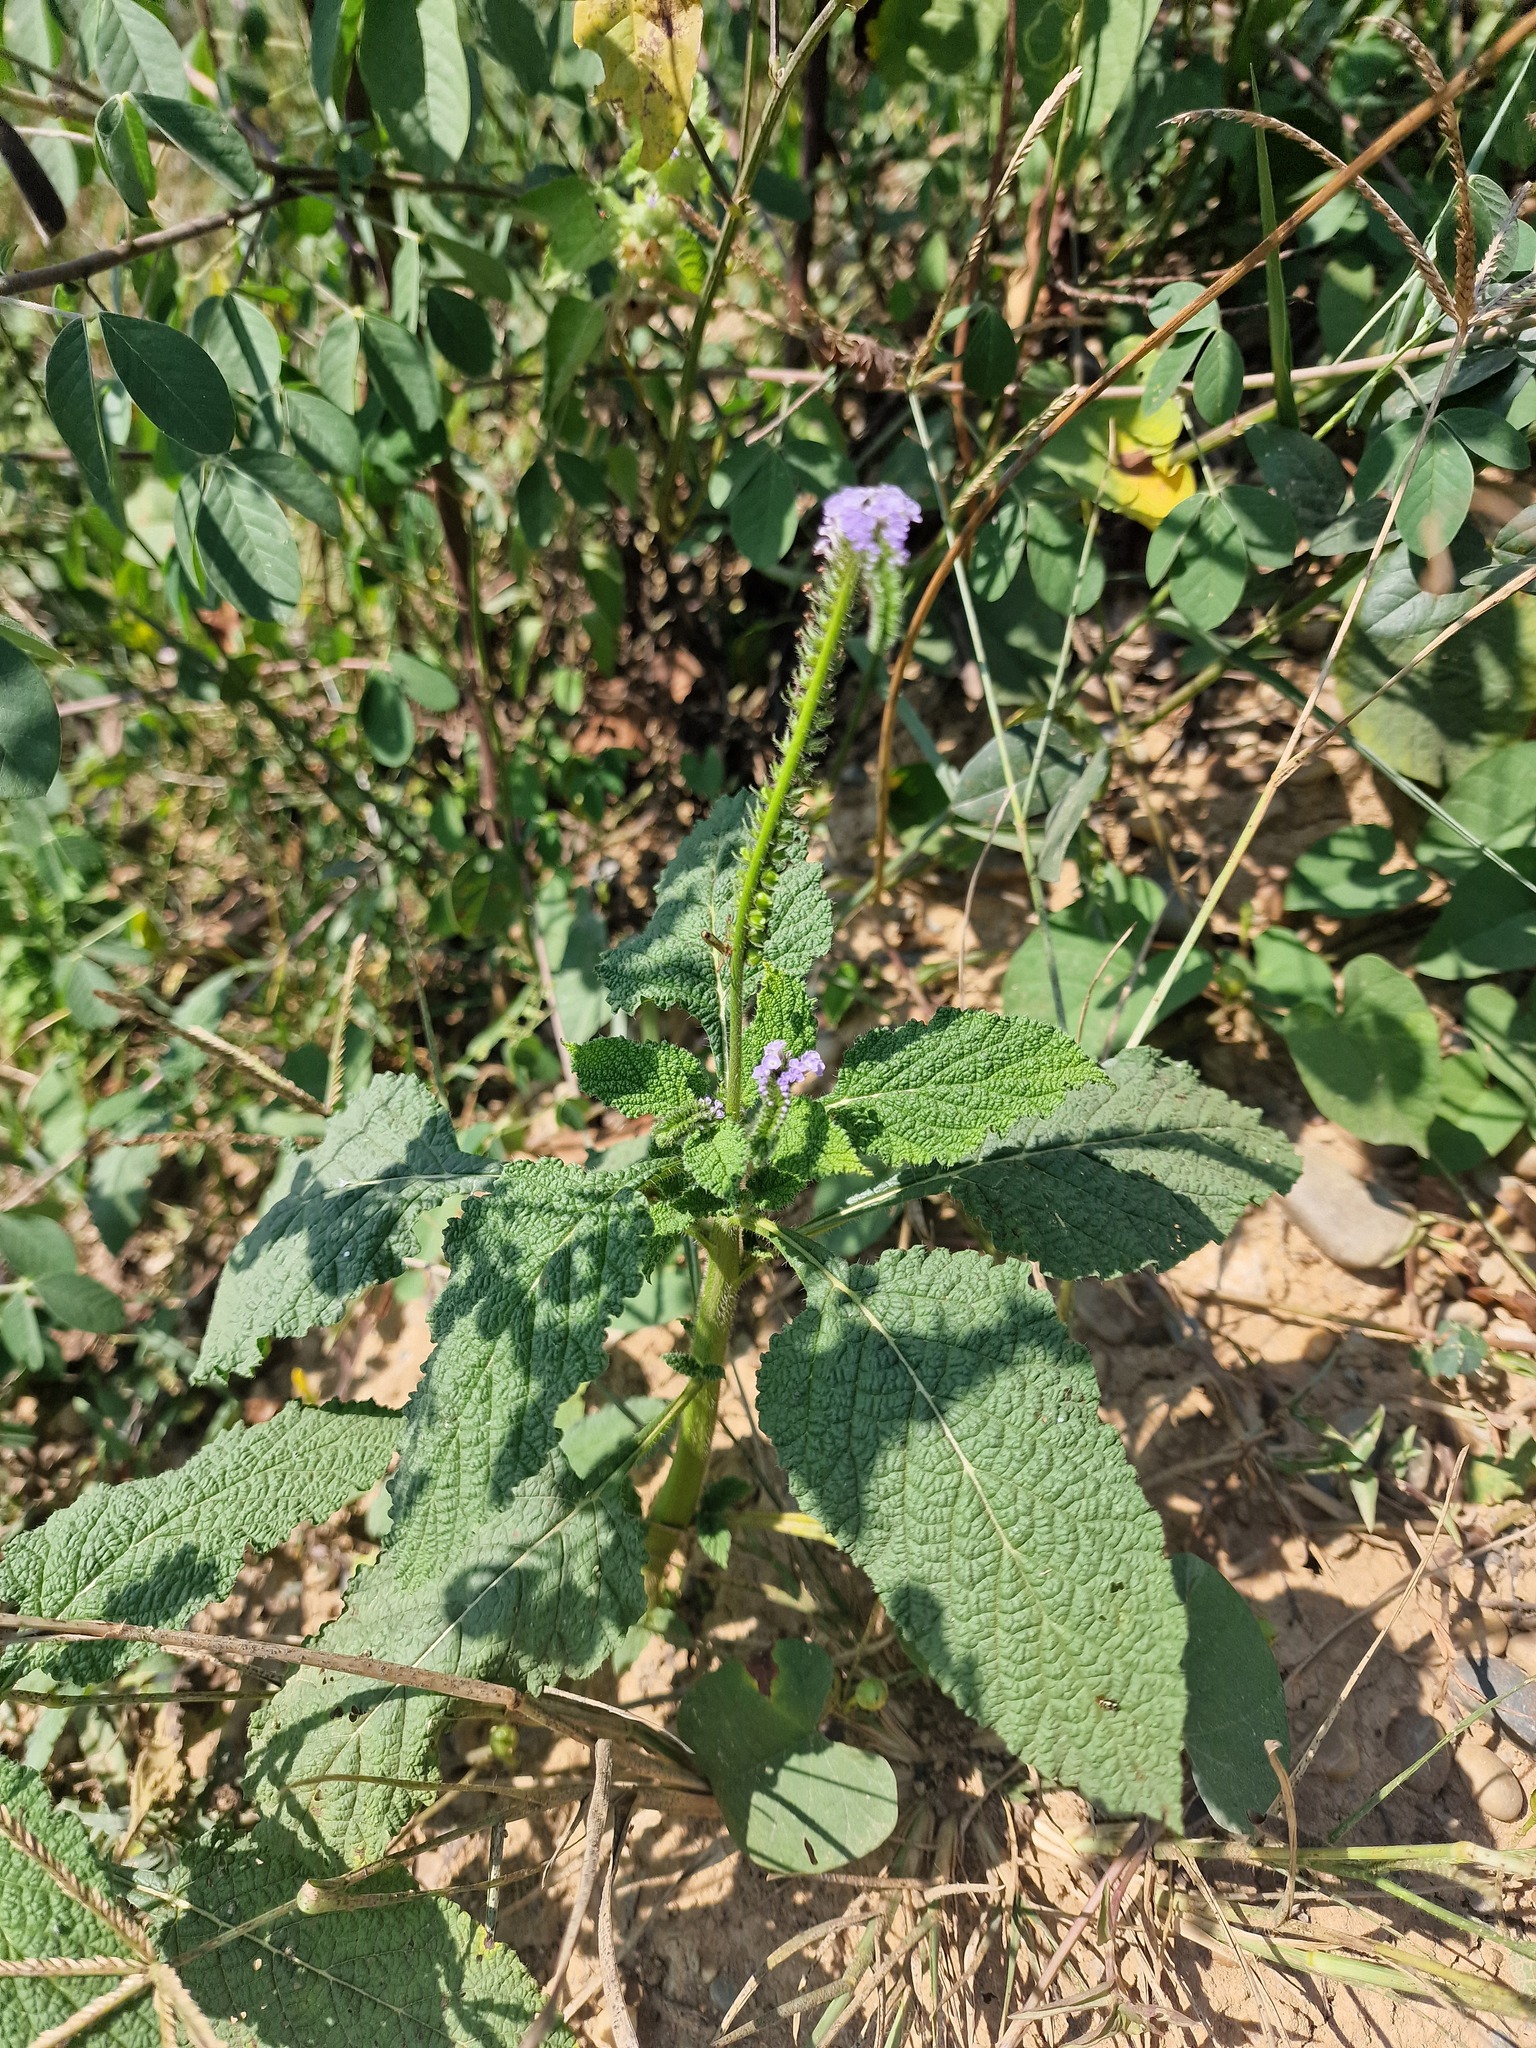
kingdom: Plantae
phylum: Tracheophyta
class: Magnoliopsida
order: Boraginales
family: Heliotropiaceae
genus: Heliotropium
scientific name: Heliotropium indicum
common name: Indian heliotrope
